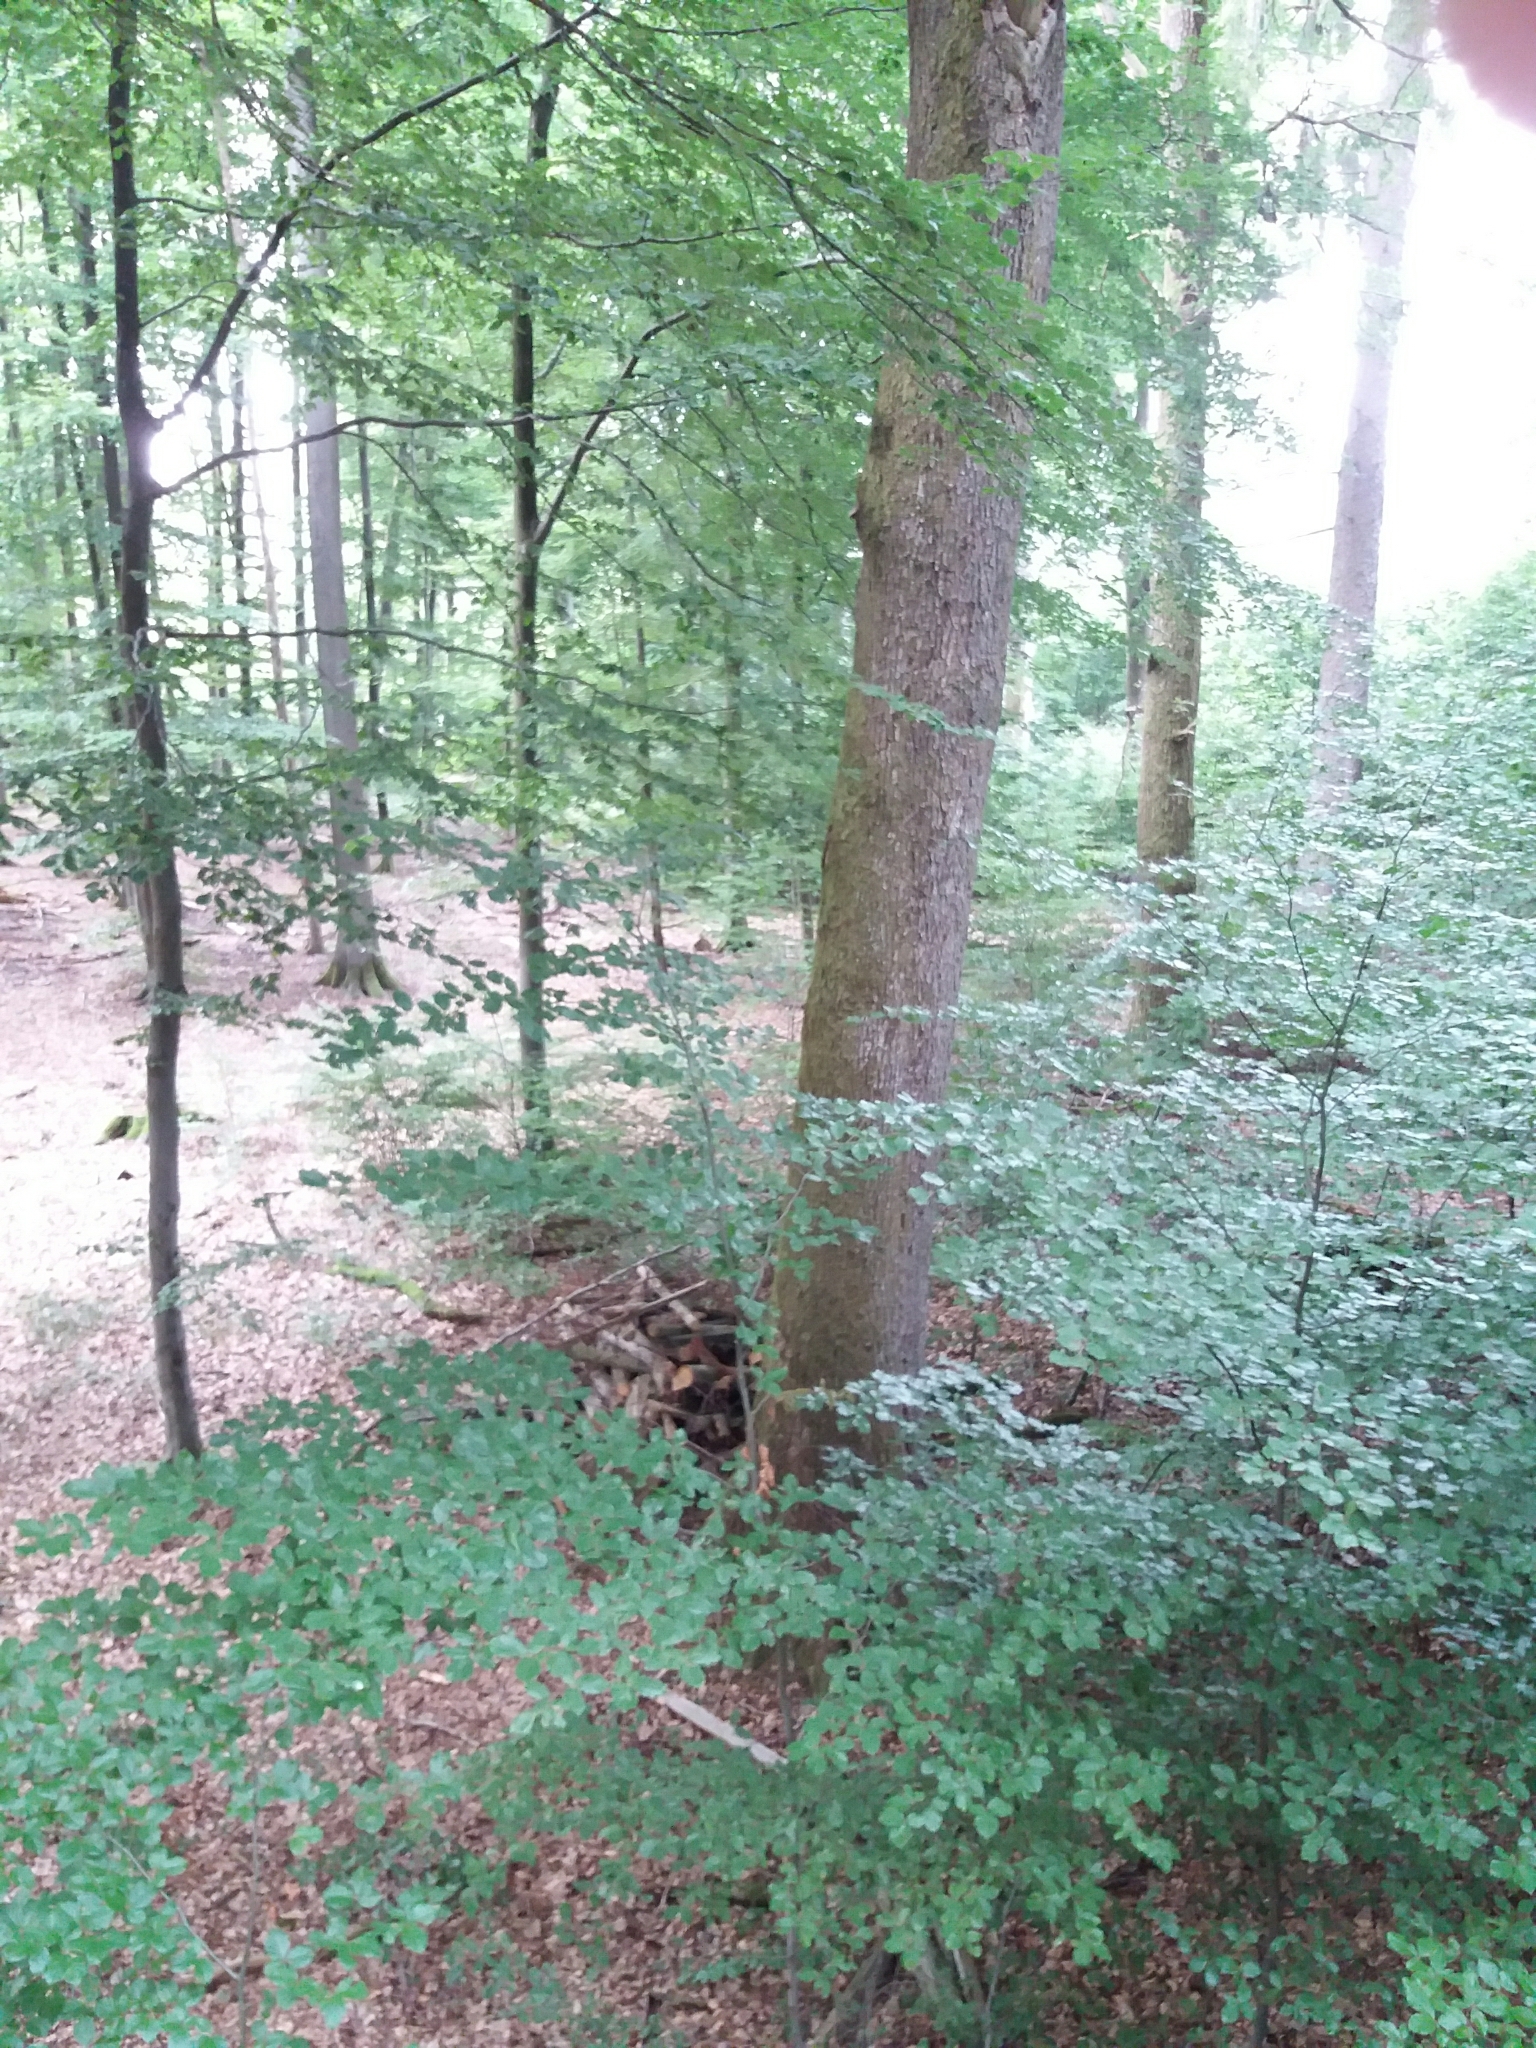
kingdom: Animalia
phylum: Chordata
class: Mammalia
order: Rodentia
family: Sciuridae
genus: Sciurus
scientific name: Sciurus vulgaris
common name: Eurasian red squirrel
